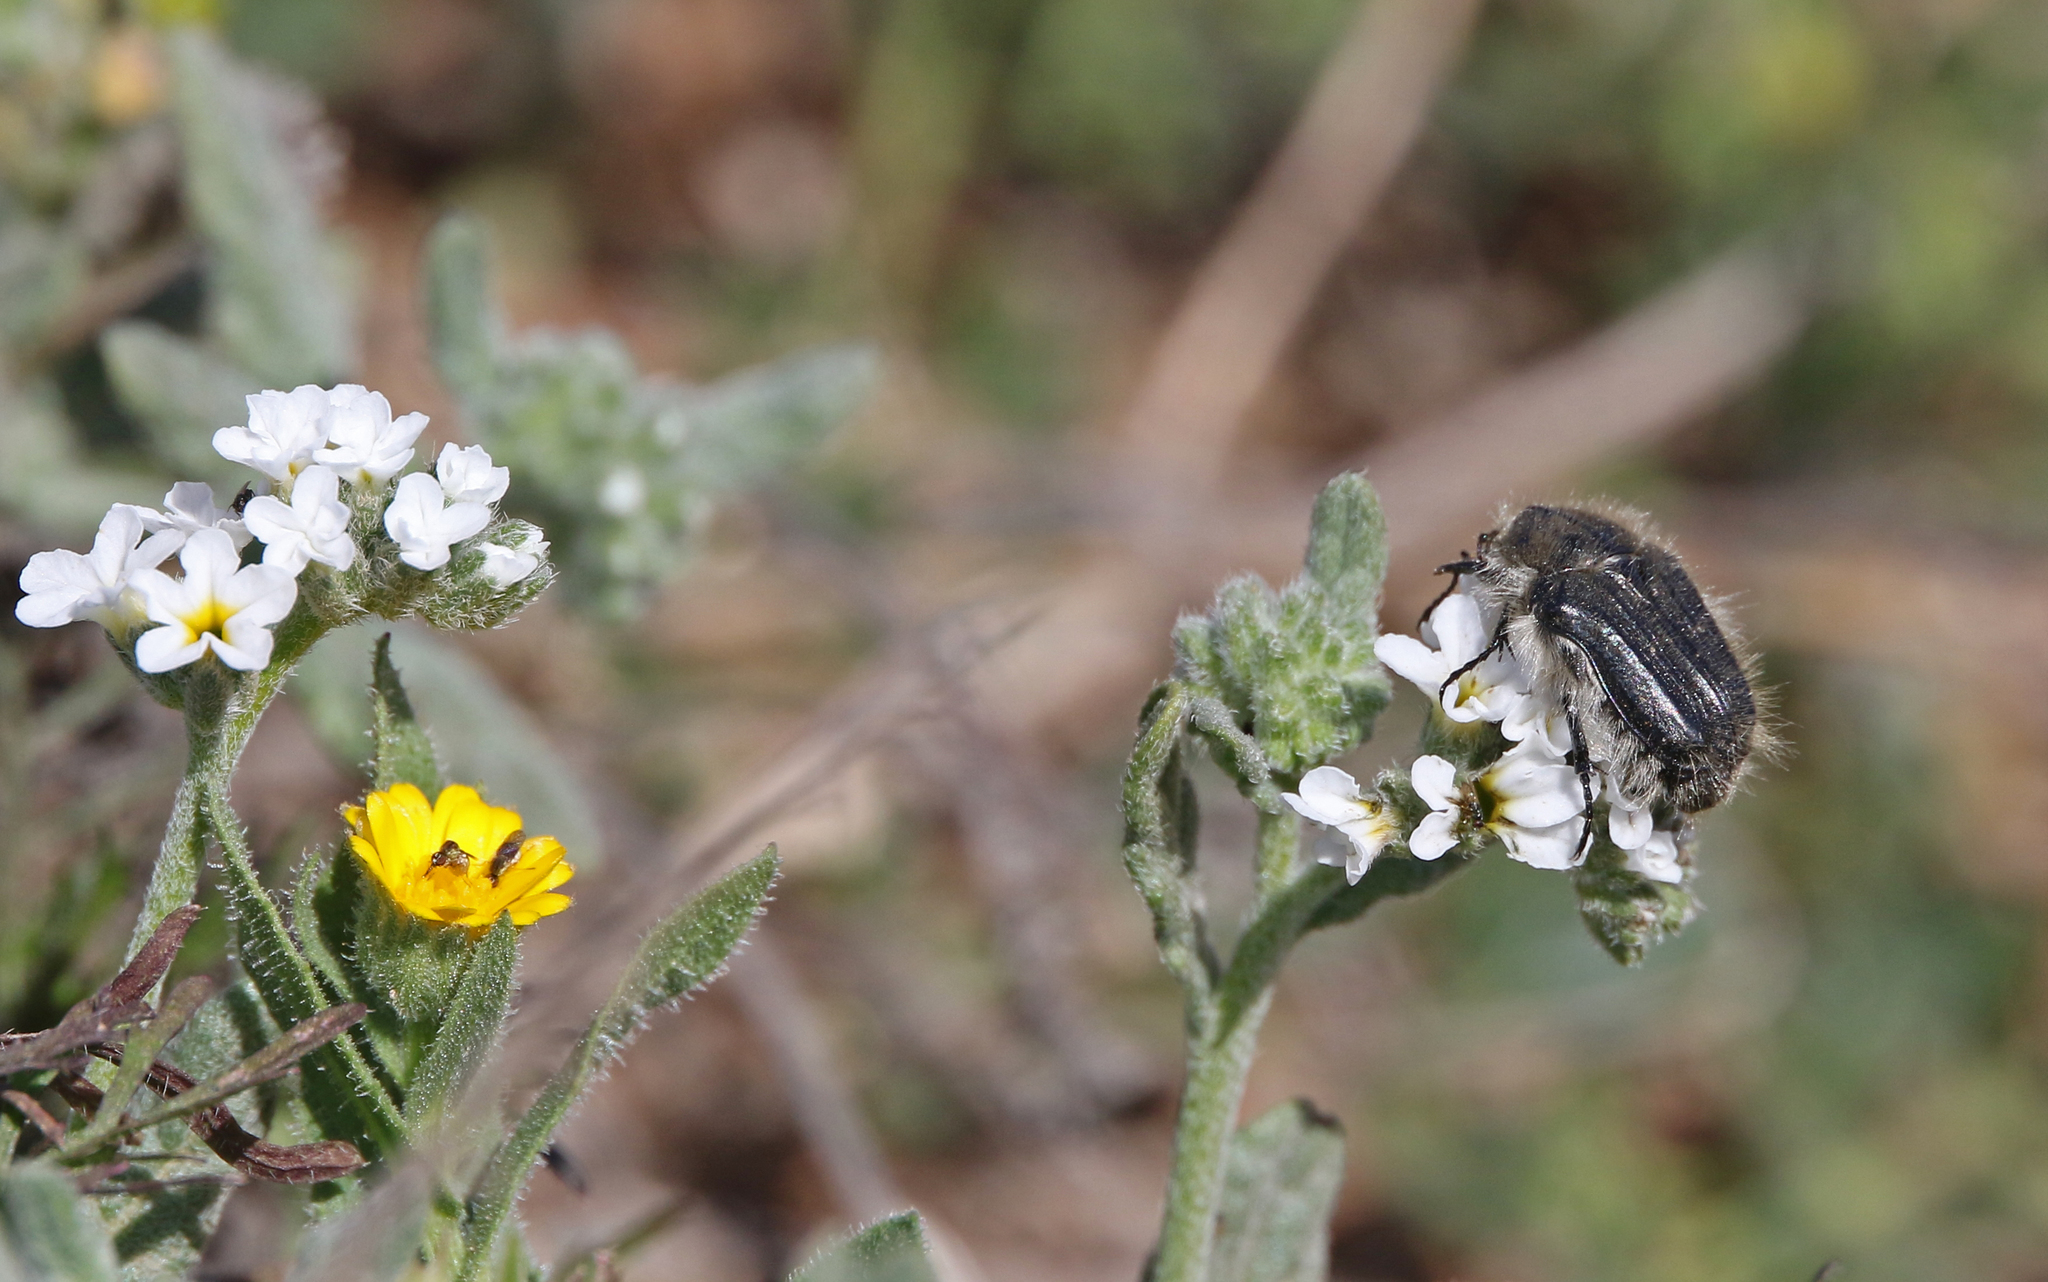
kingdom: Animalia
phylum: Arthropoda
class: Insecta
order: Coleoptera
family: Scarabaeidae
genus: Tropinota
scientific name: Tropinota squalida
